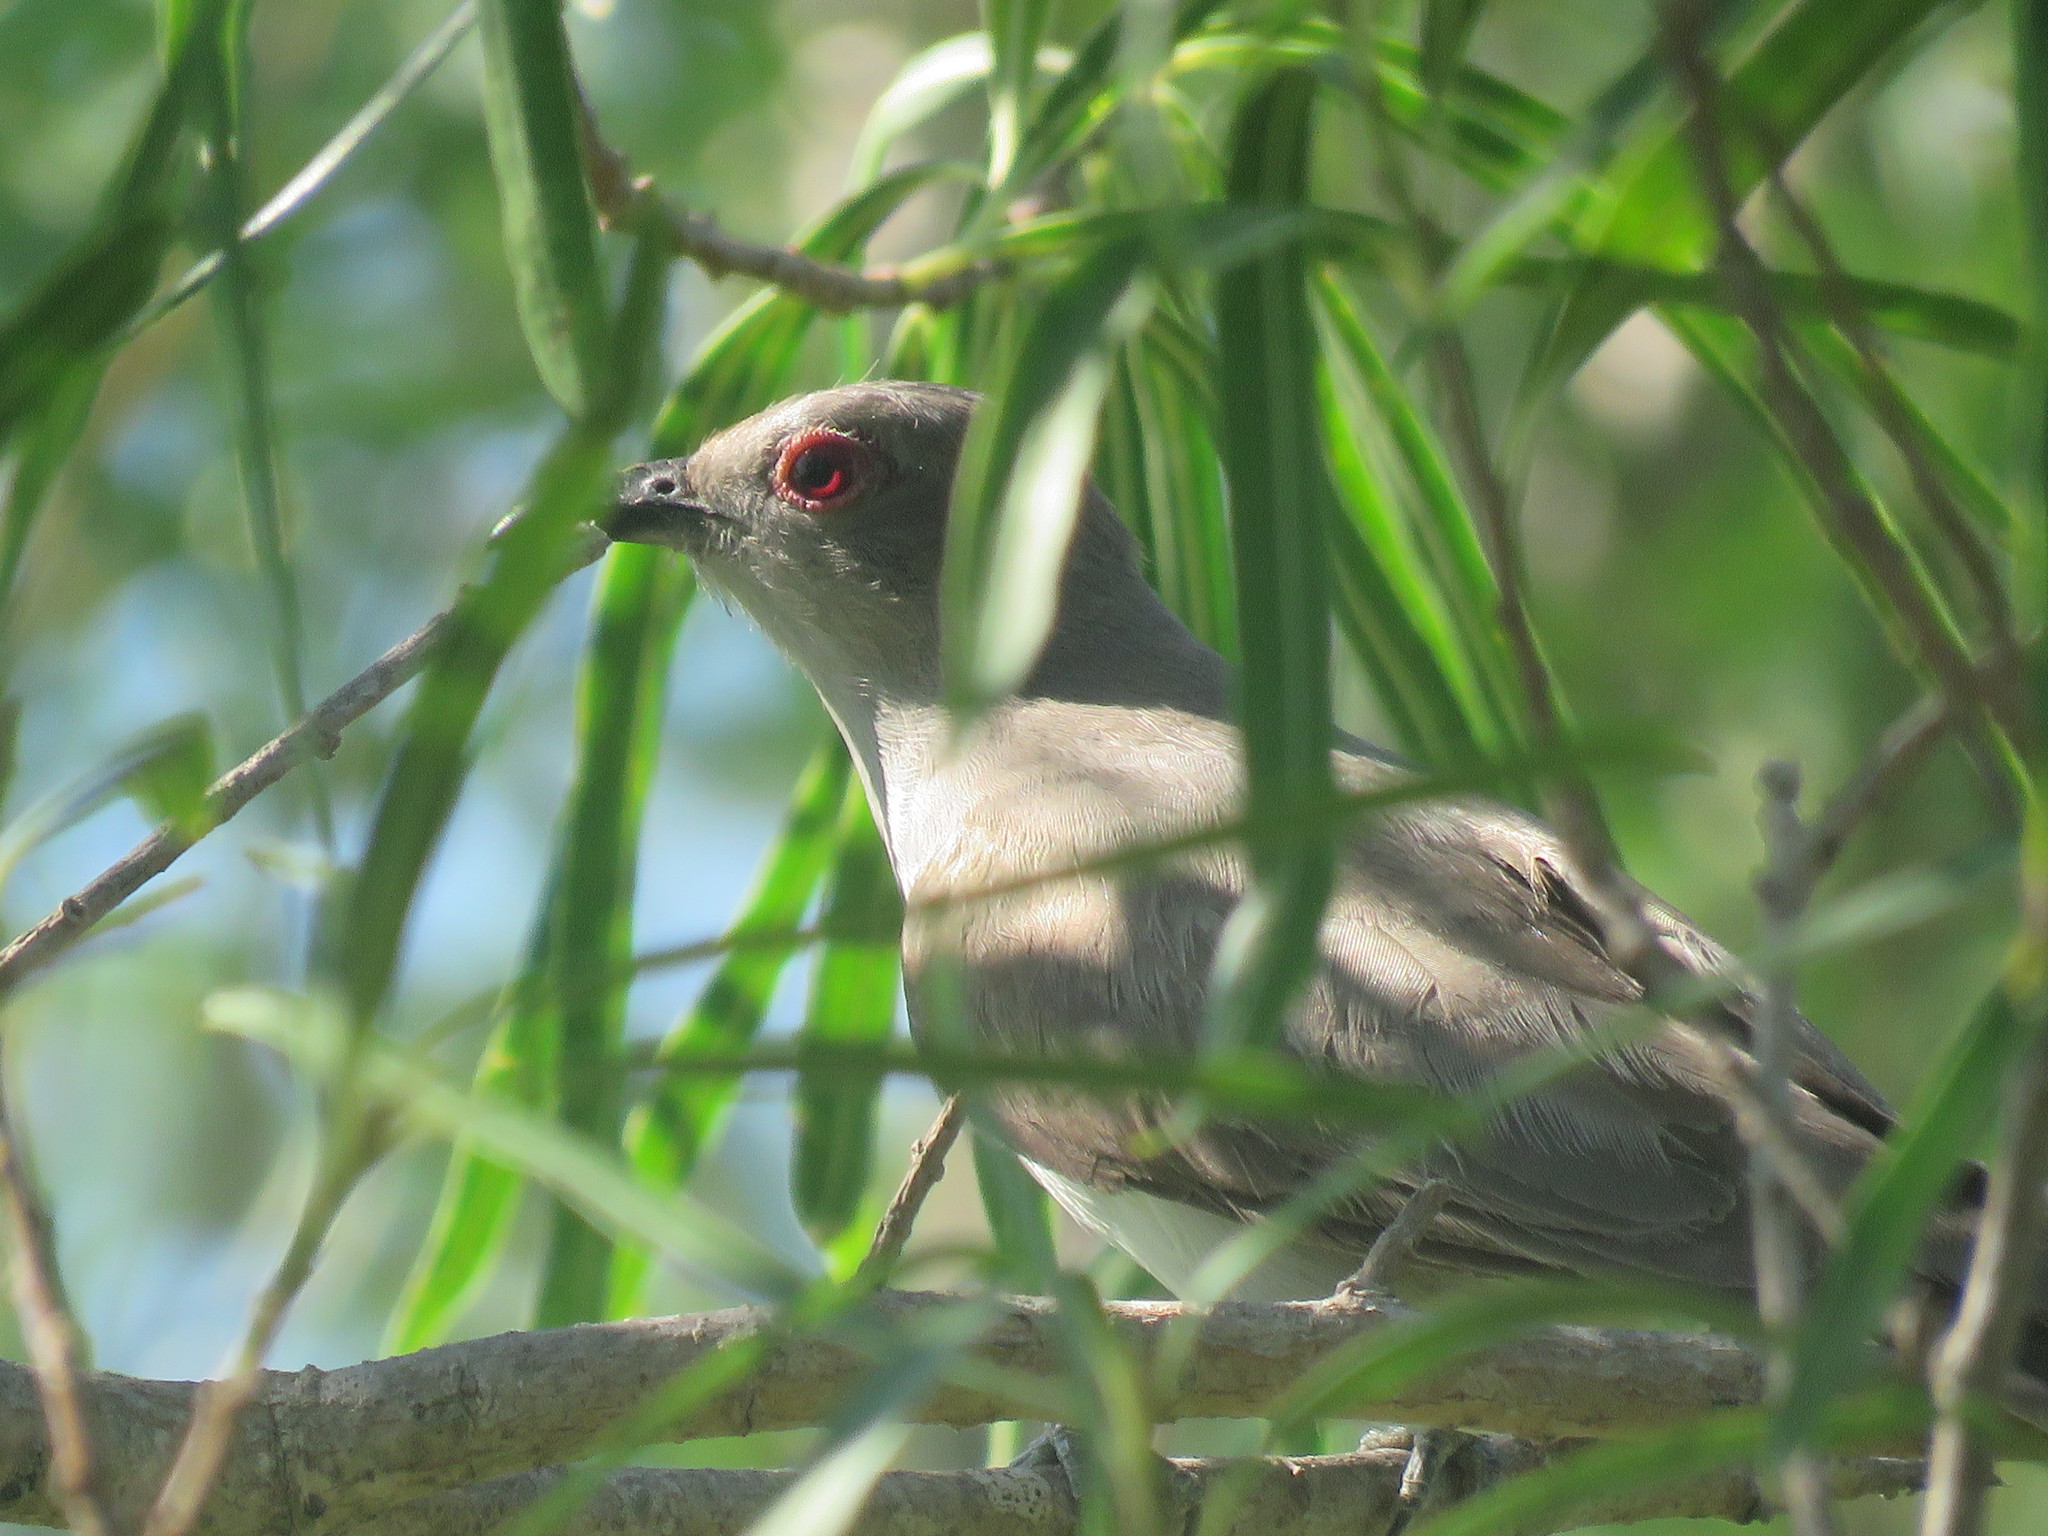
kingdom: Animalia
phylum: Chordata
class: Aves
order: Cuculiformes
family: Cuculidae
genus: Coccyzus
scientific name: Coccyzus cinereus
